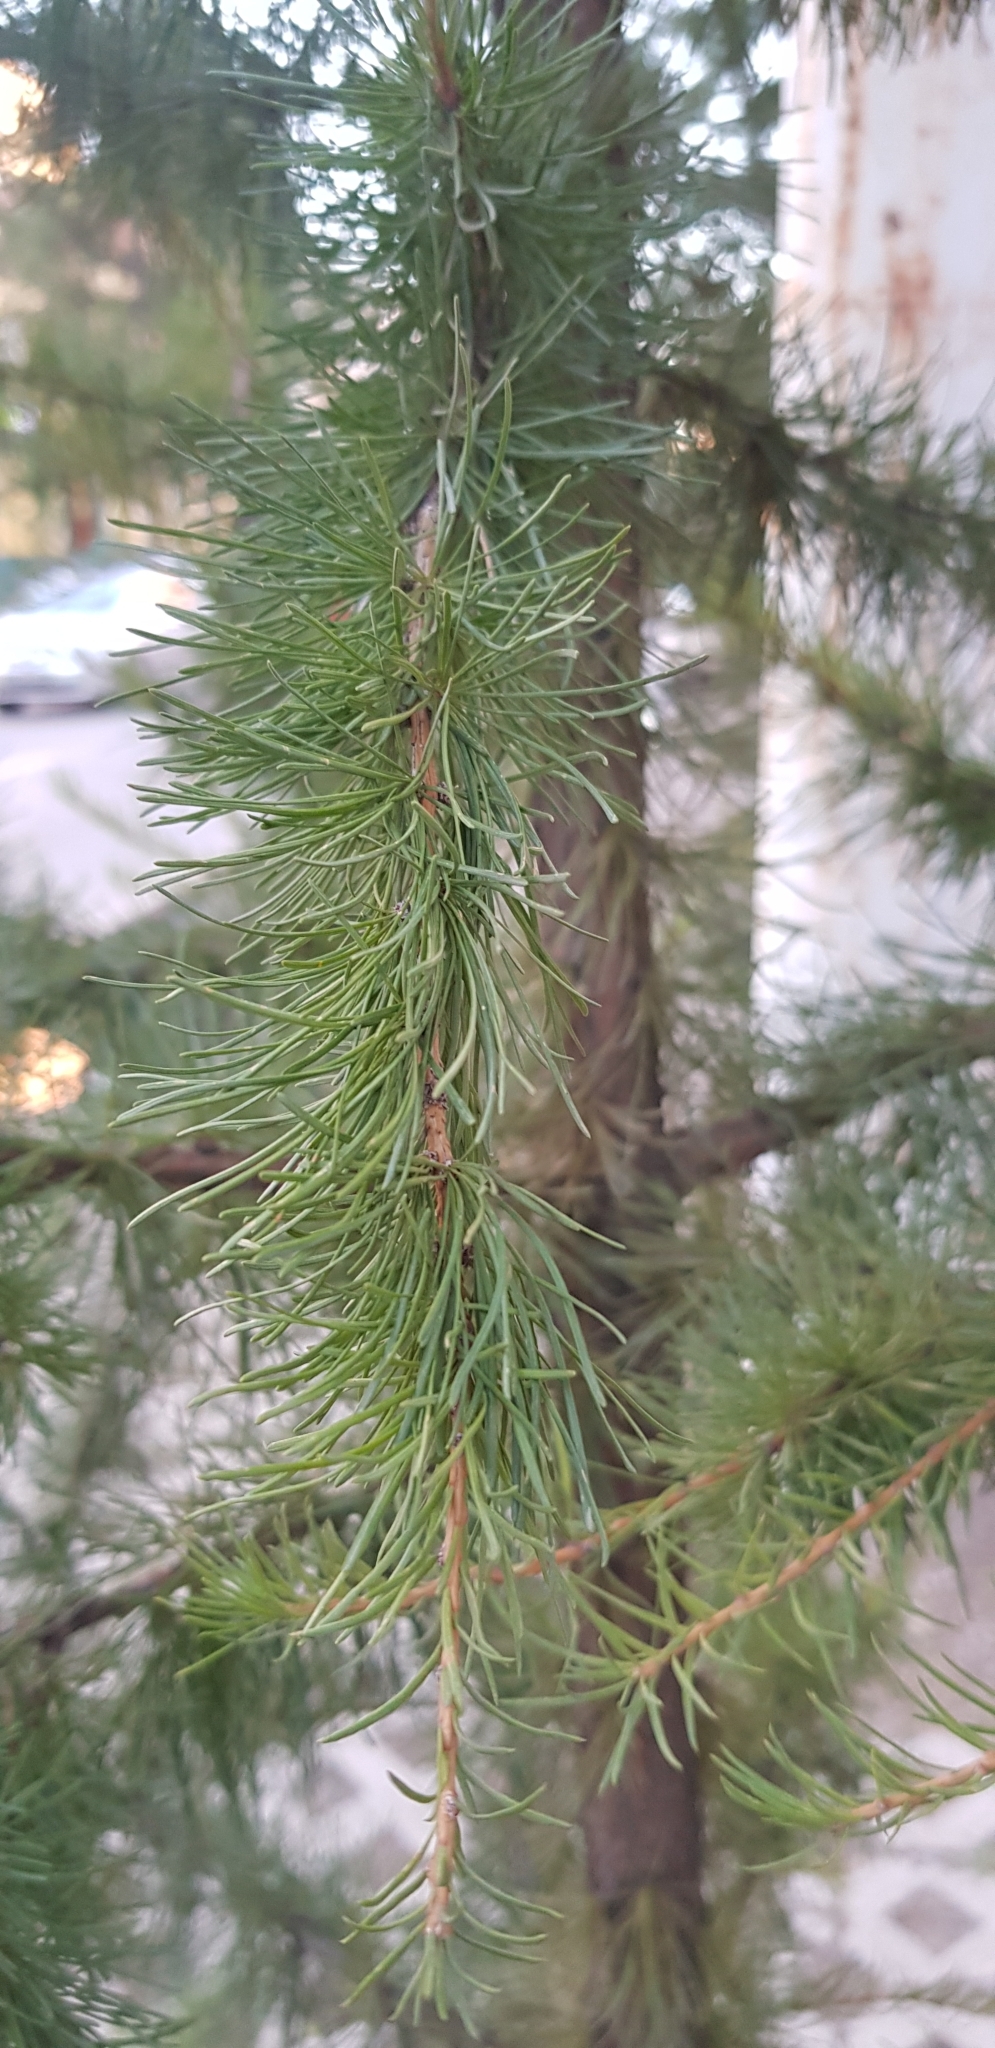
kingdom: Plantae
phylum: Tracheophyta
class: Pinopsida
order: Pinales
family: Pinaceae
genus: Larix
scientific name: Larix sibirica
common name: Siberian larch
